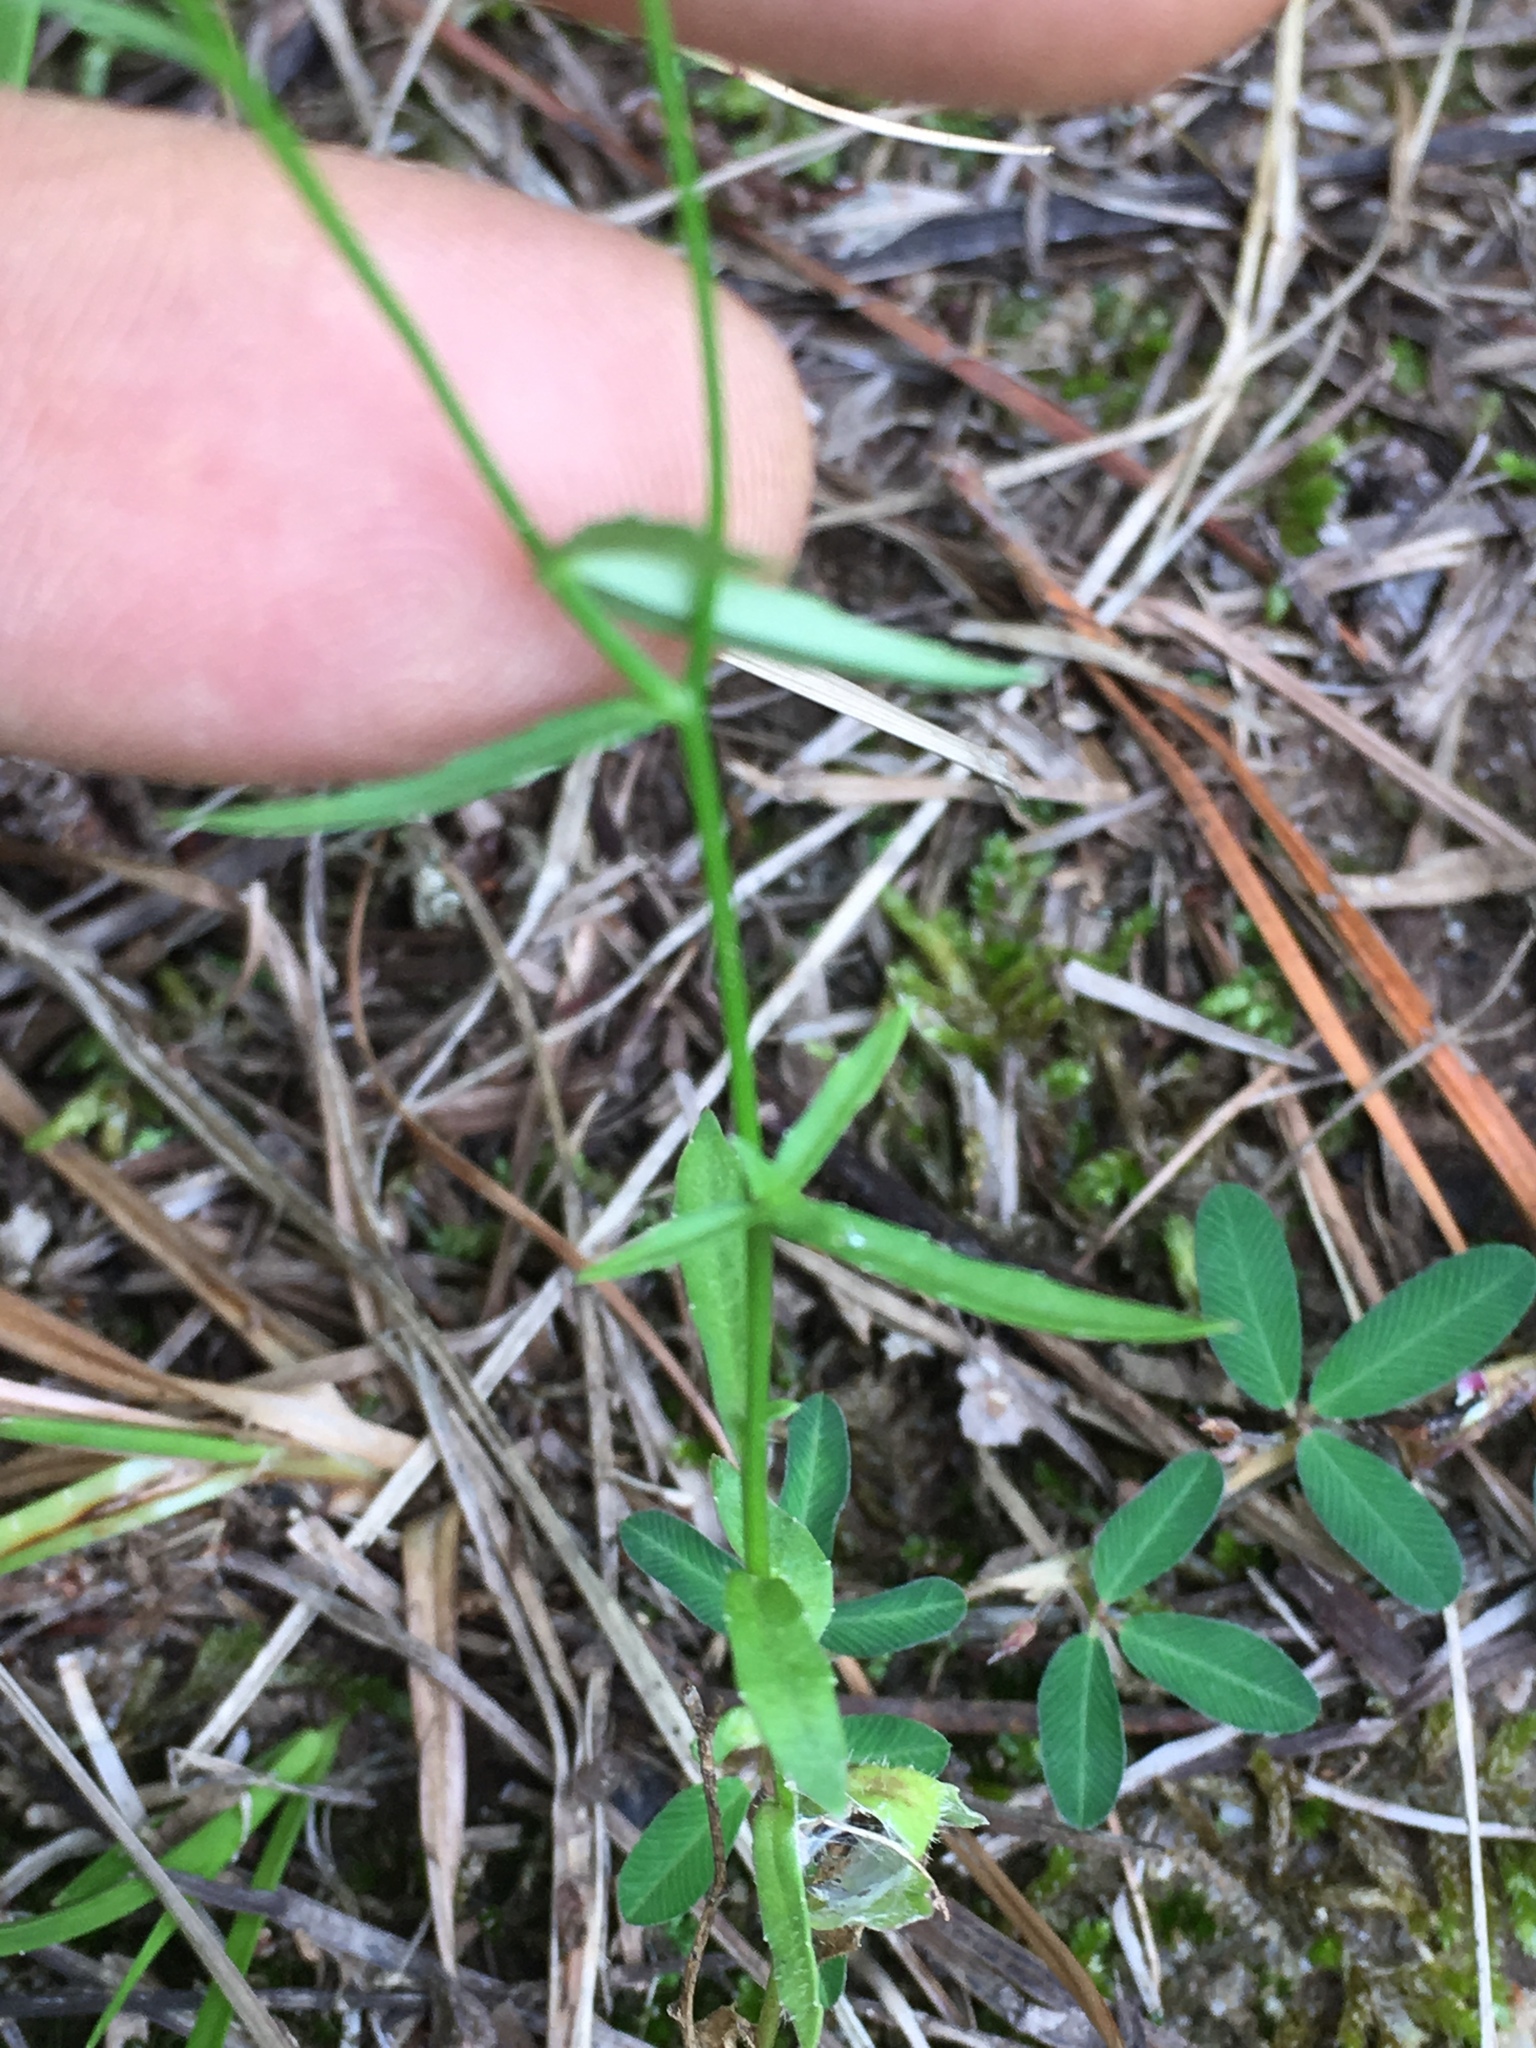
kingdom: Plantae
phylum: Tracheophyta
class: Magnoliopsida
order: Asterales
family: Campanulaceae
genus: Wahlenbergia
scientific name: Wahlenbergia marginata
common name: Southern rockbell
